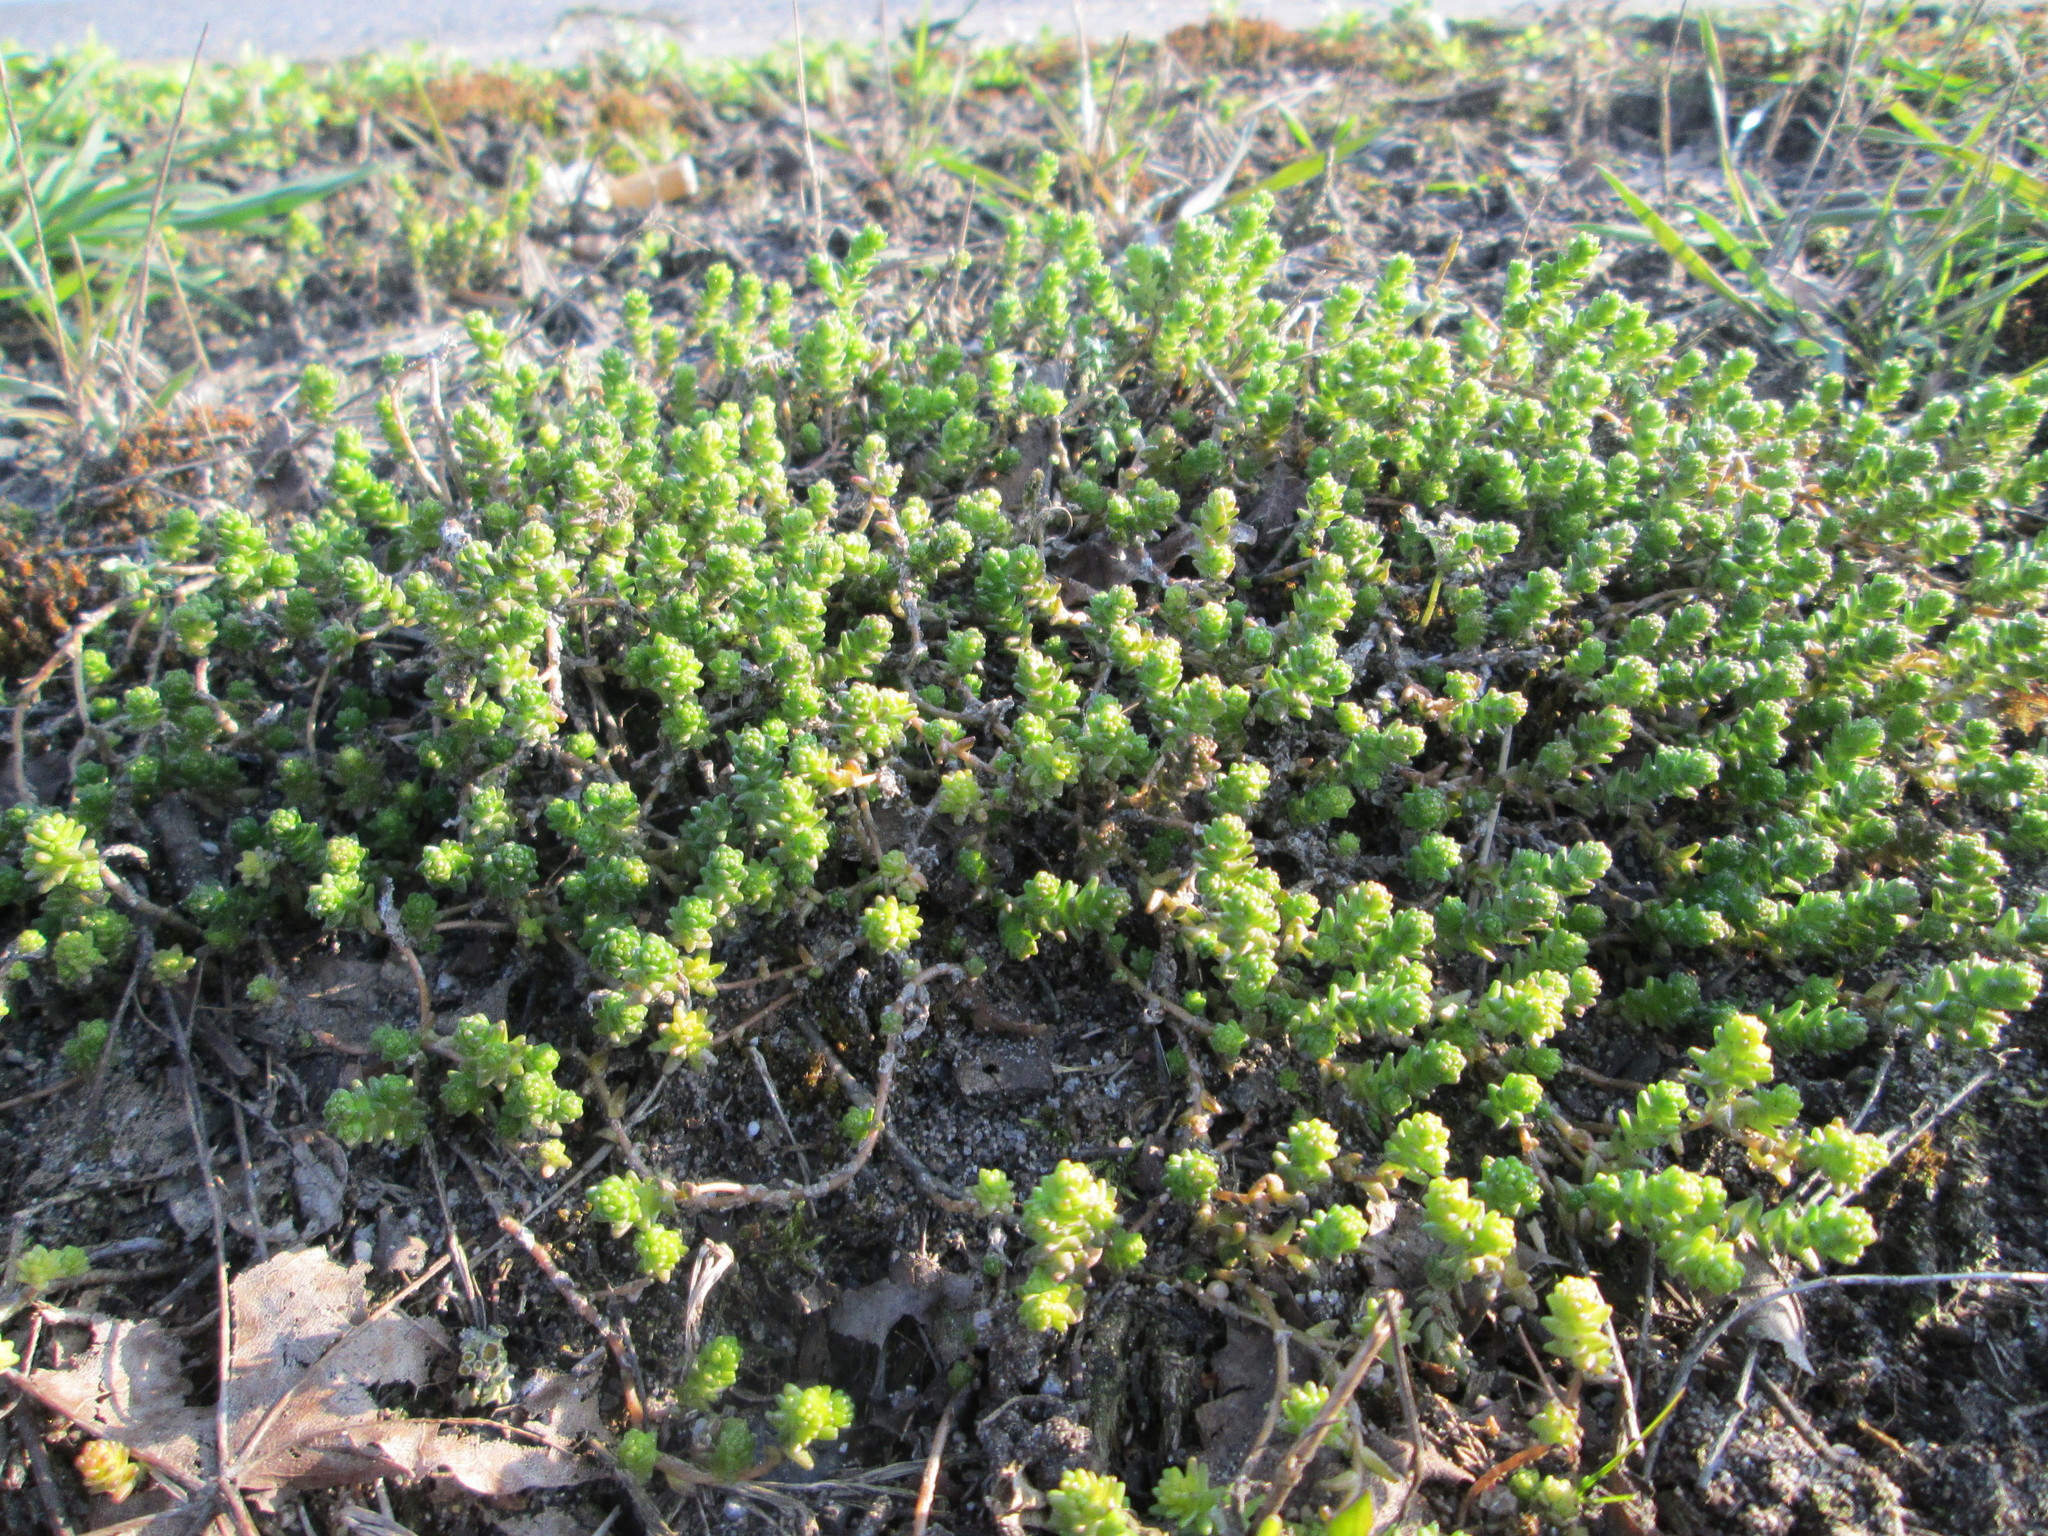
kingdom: Plantae
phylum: Tracheophyta
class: Magnoliopsida
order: Saxifragales
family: Crassulaceae
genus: Sedum
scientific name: Sedum acre
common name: Biting stonecrop
